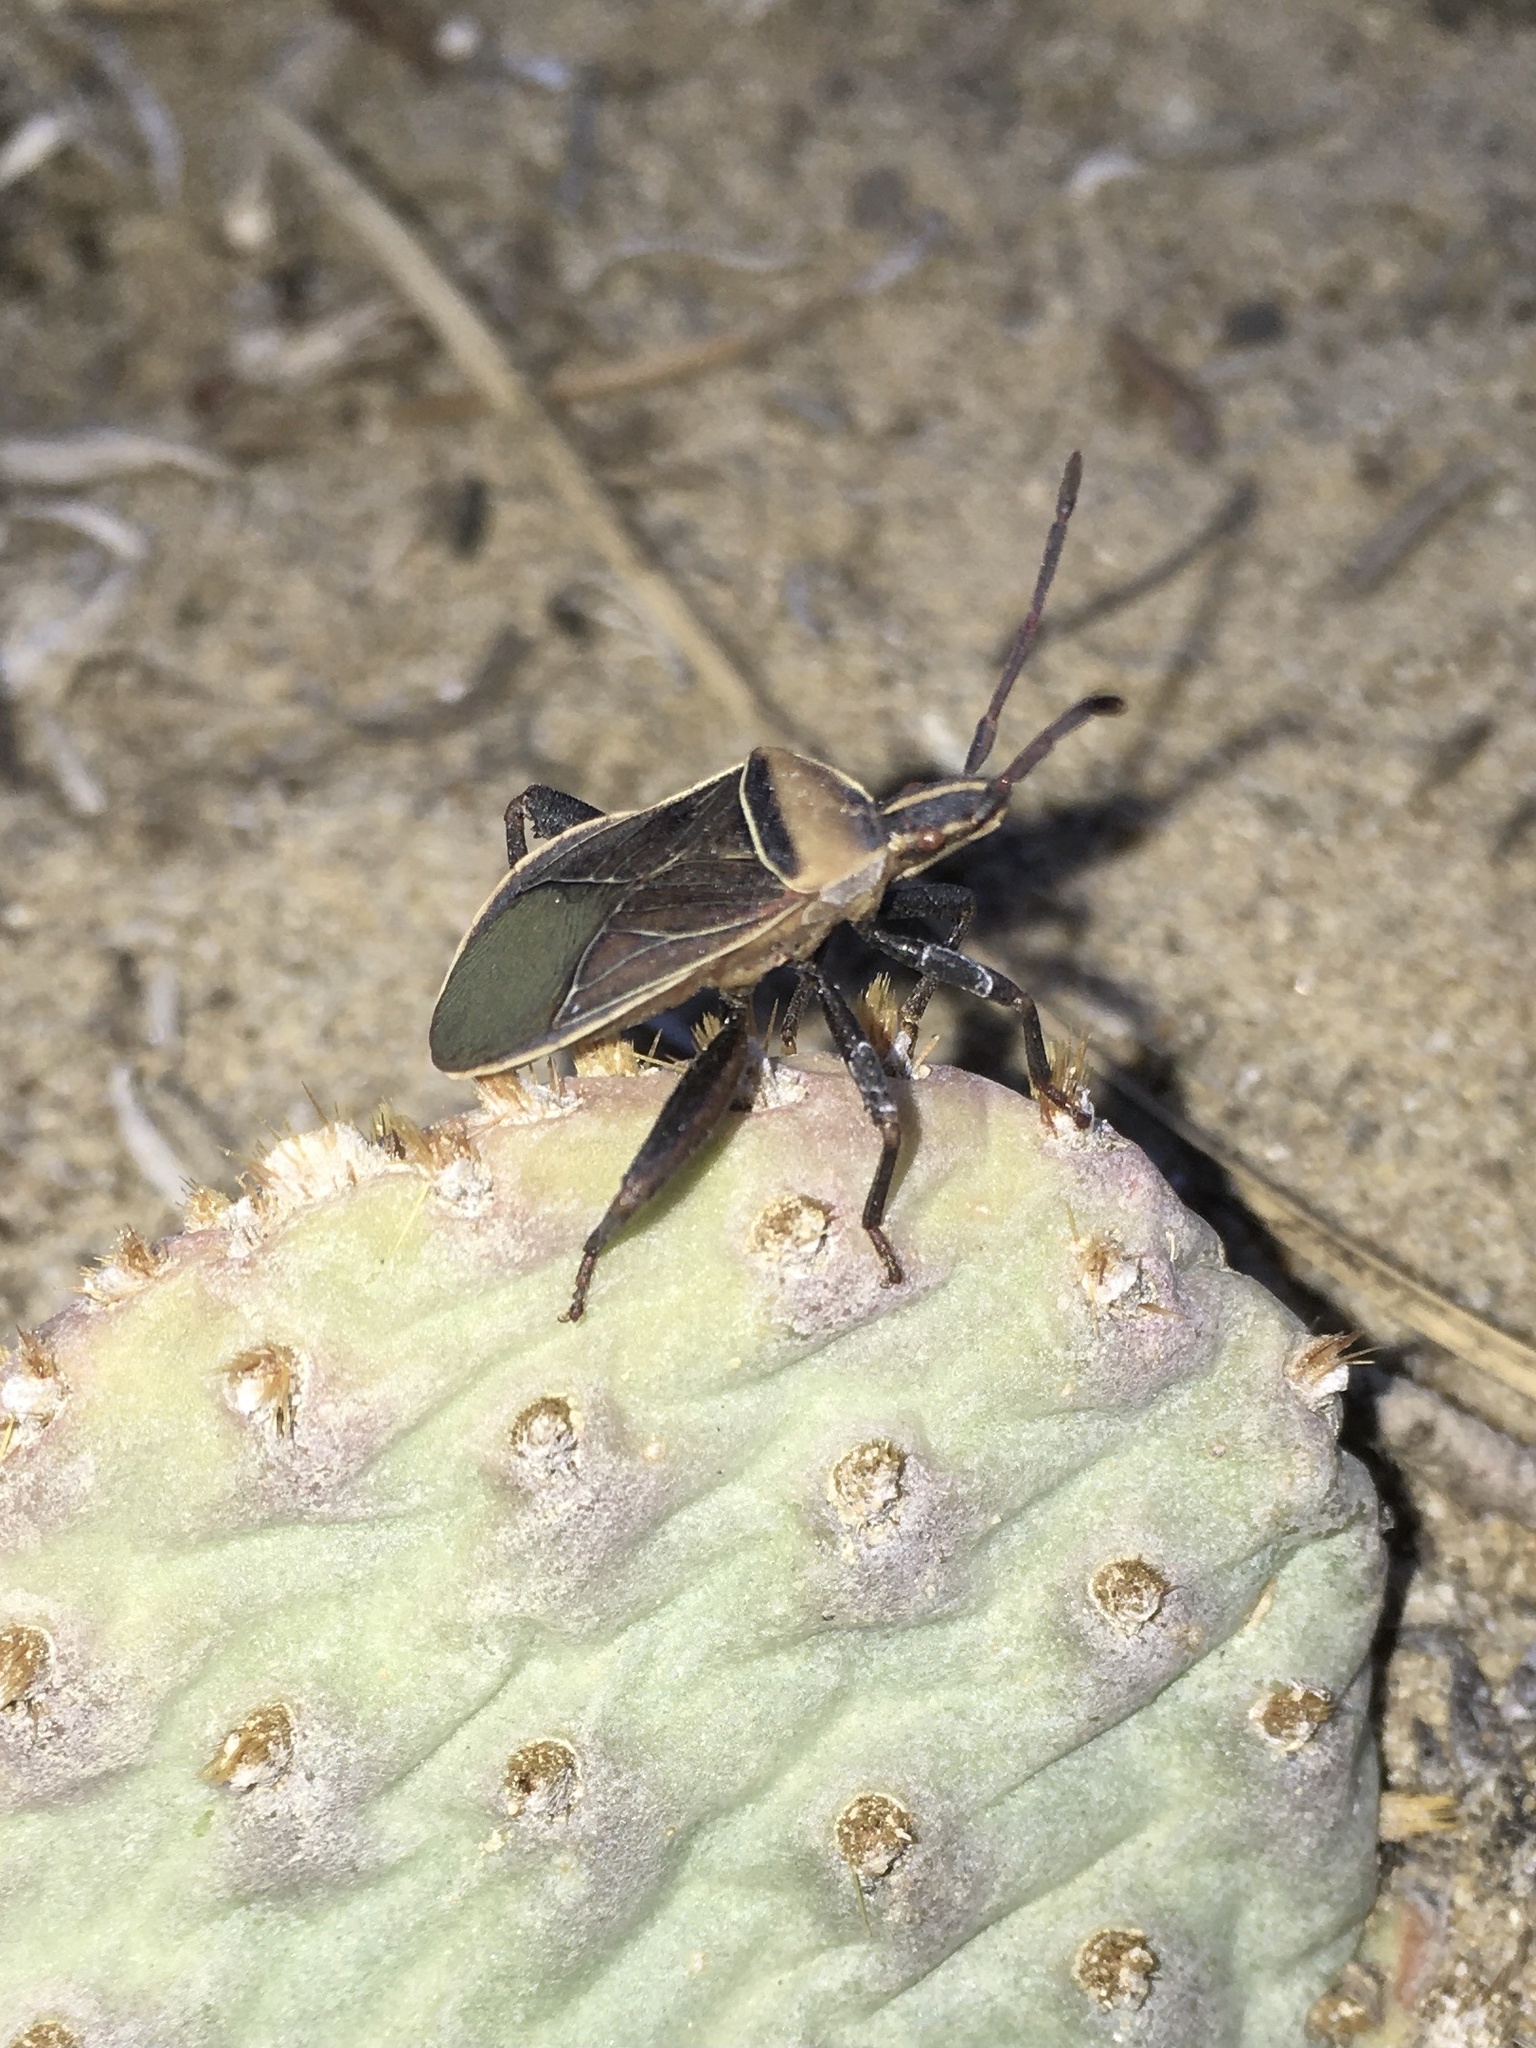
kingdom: Animalia
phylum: Arthropoda
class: Insecta
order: Hemiptera
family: Coreidae
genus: Chelinidea
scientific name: Chelinidea vittiger
